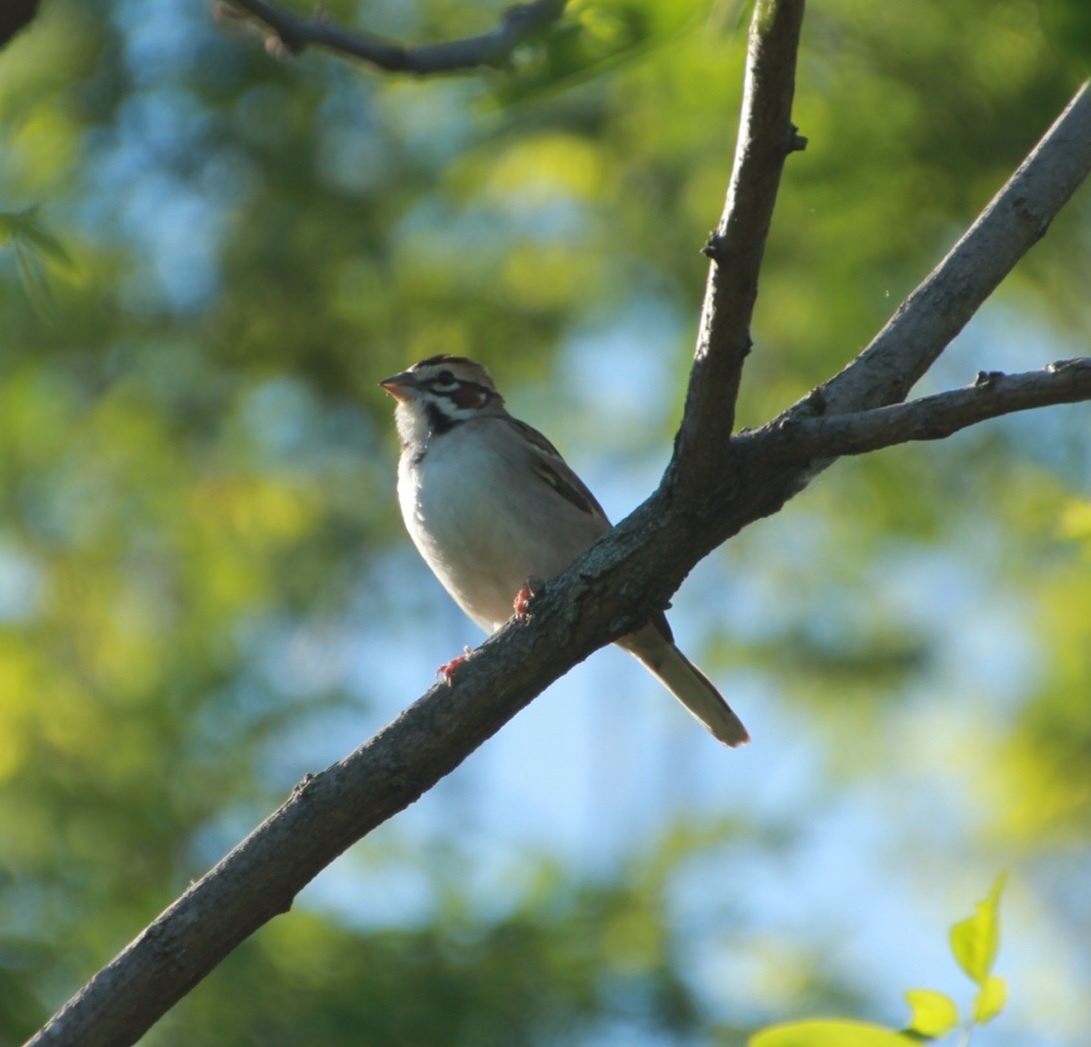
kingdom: Animalia
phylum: Chordata
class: Aves
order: Passeriformes
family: Passerellidae
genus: Chondestes
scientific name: Chondestes grammacus
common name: Lark sparrow
